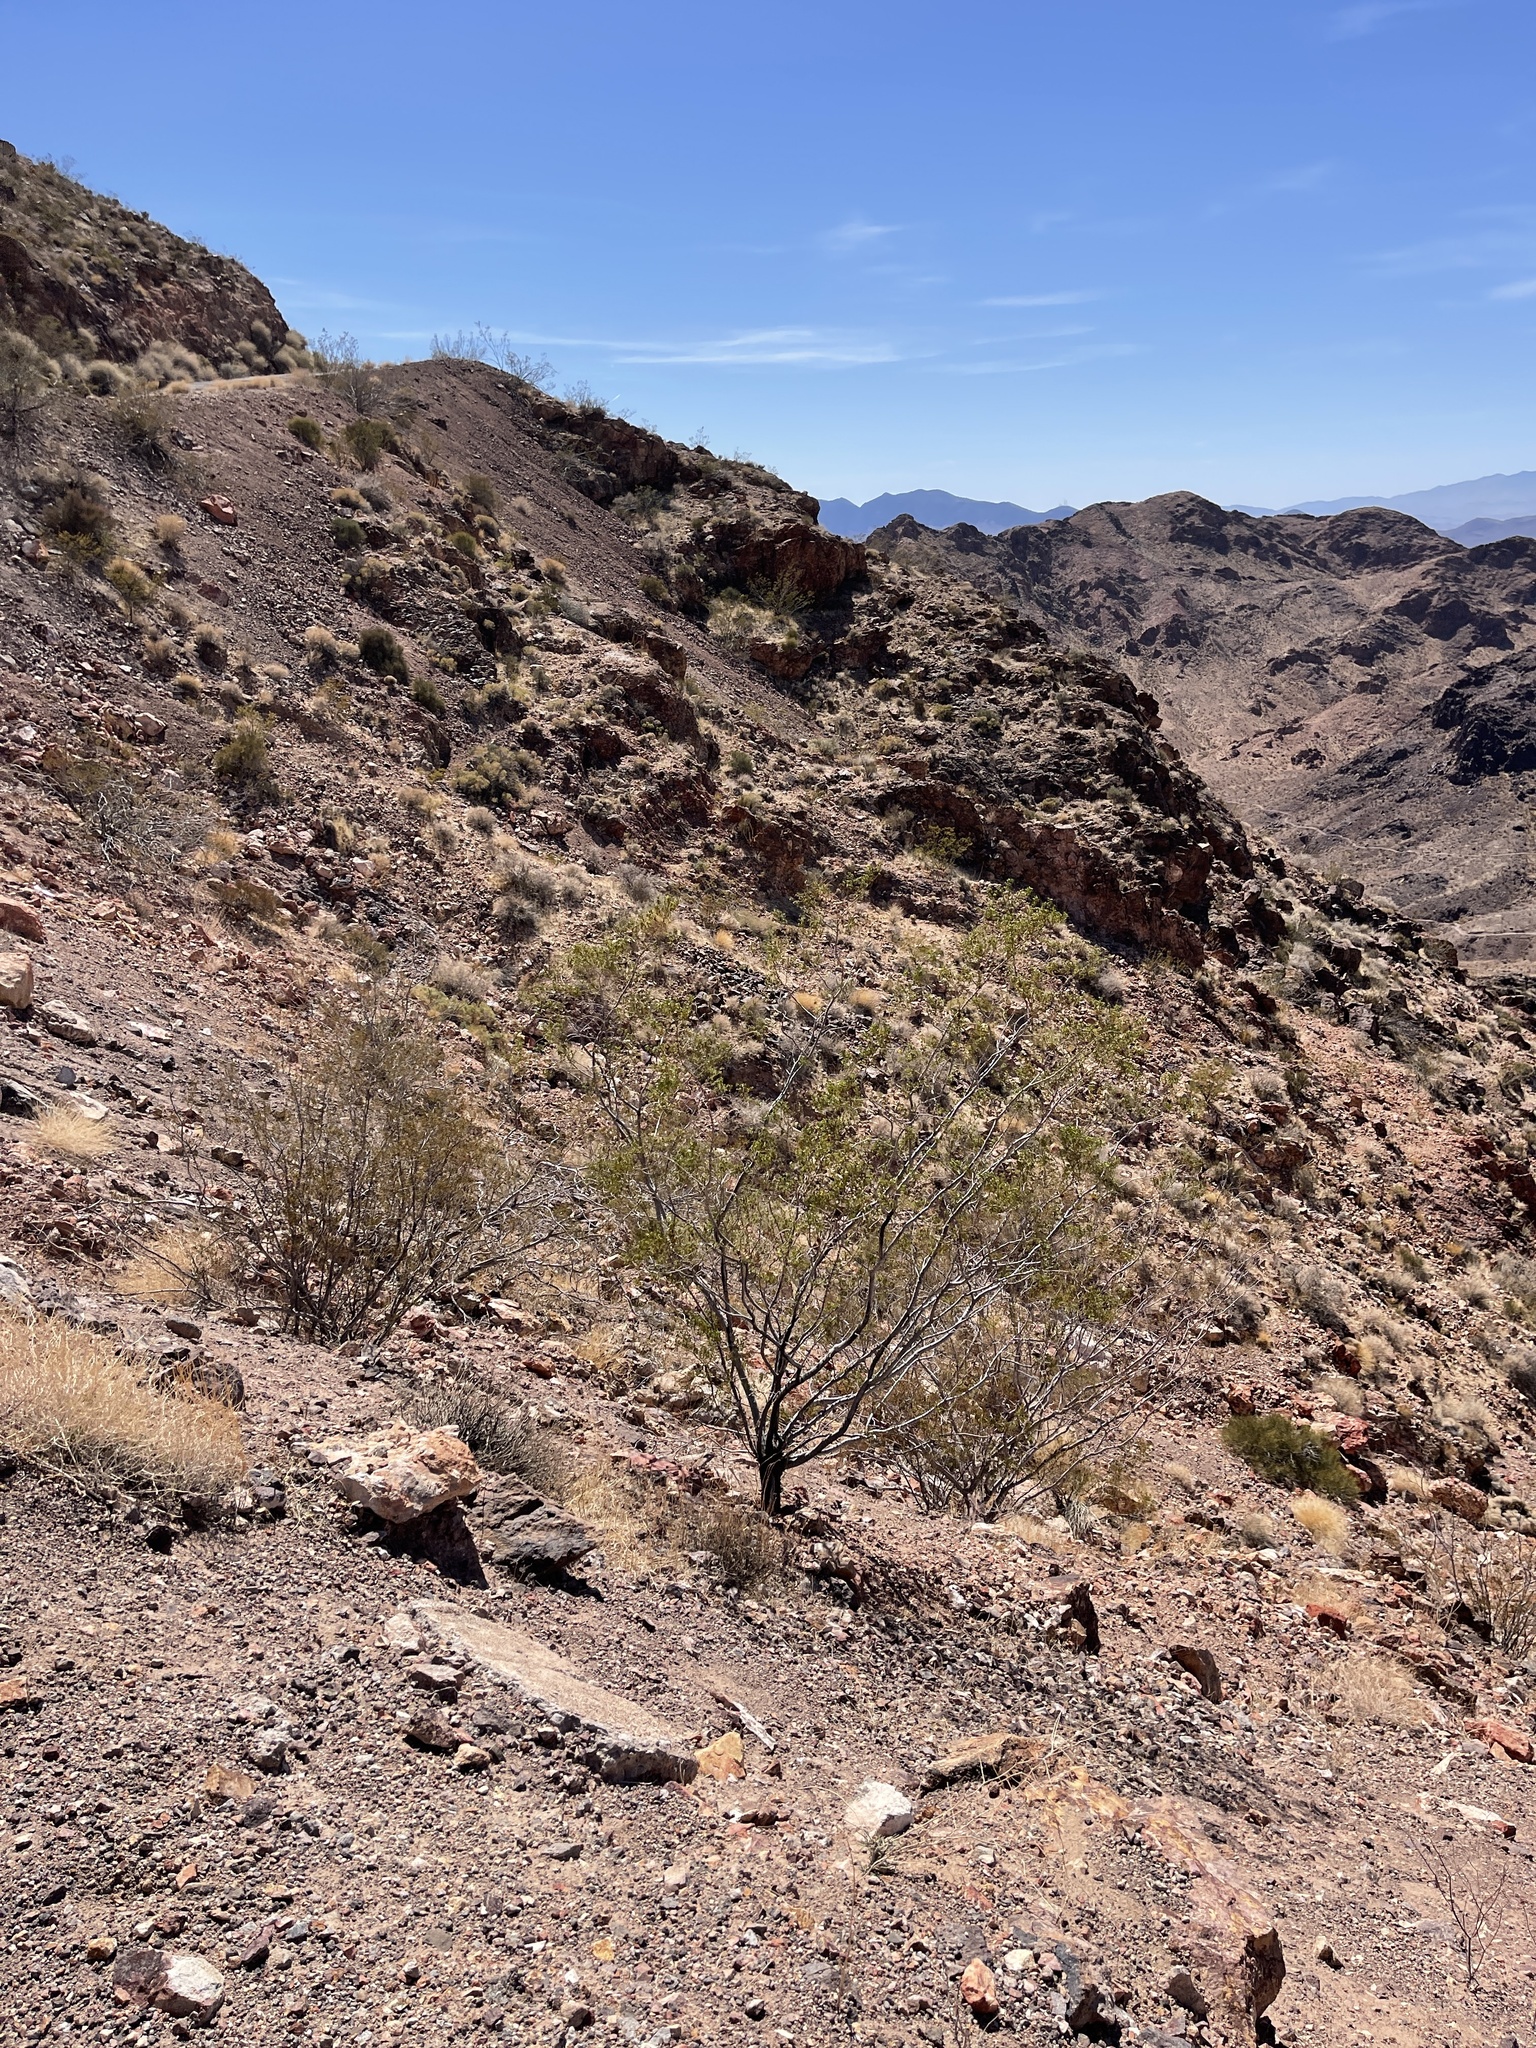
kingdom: Plantae
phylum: Tracheophyta
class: Magnoliopsida
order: Zygophyllales
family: Zygophyllaceae
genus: Larrea
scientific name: Larrea tridentata
